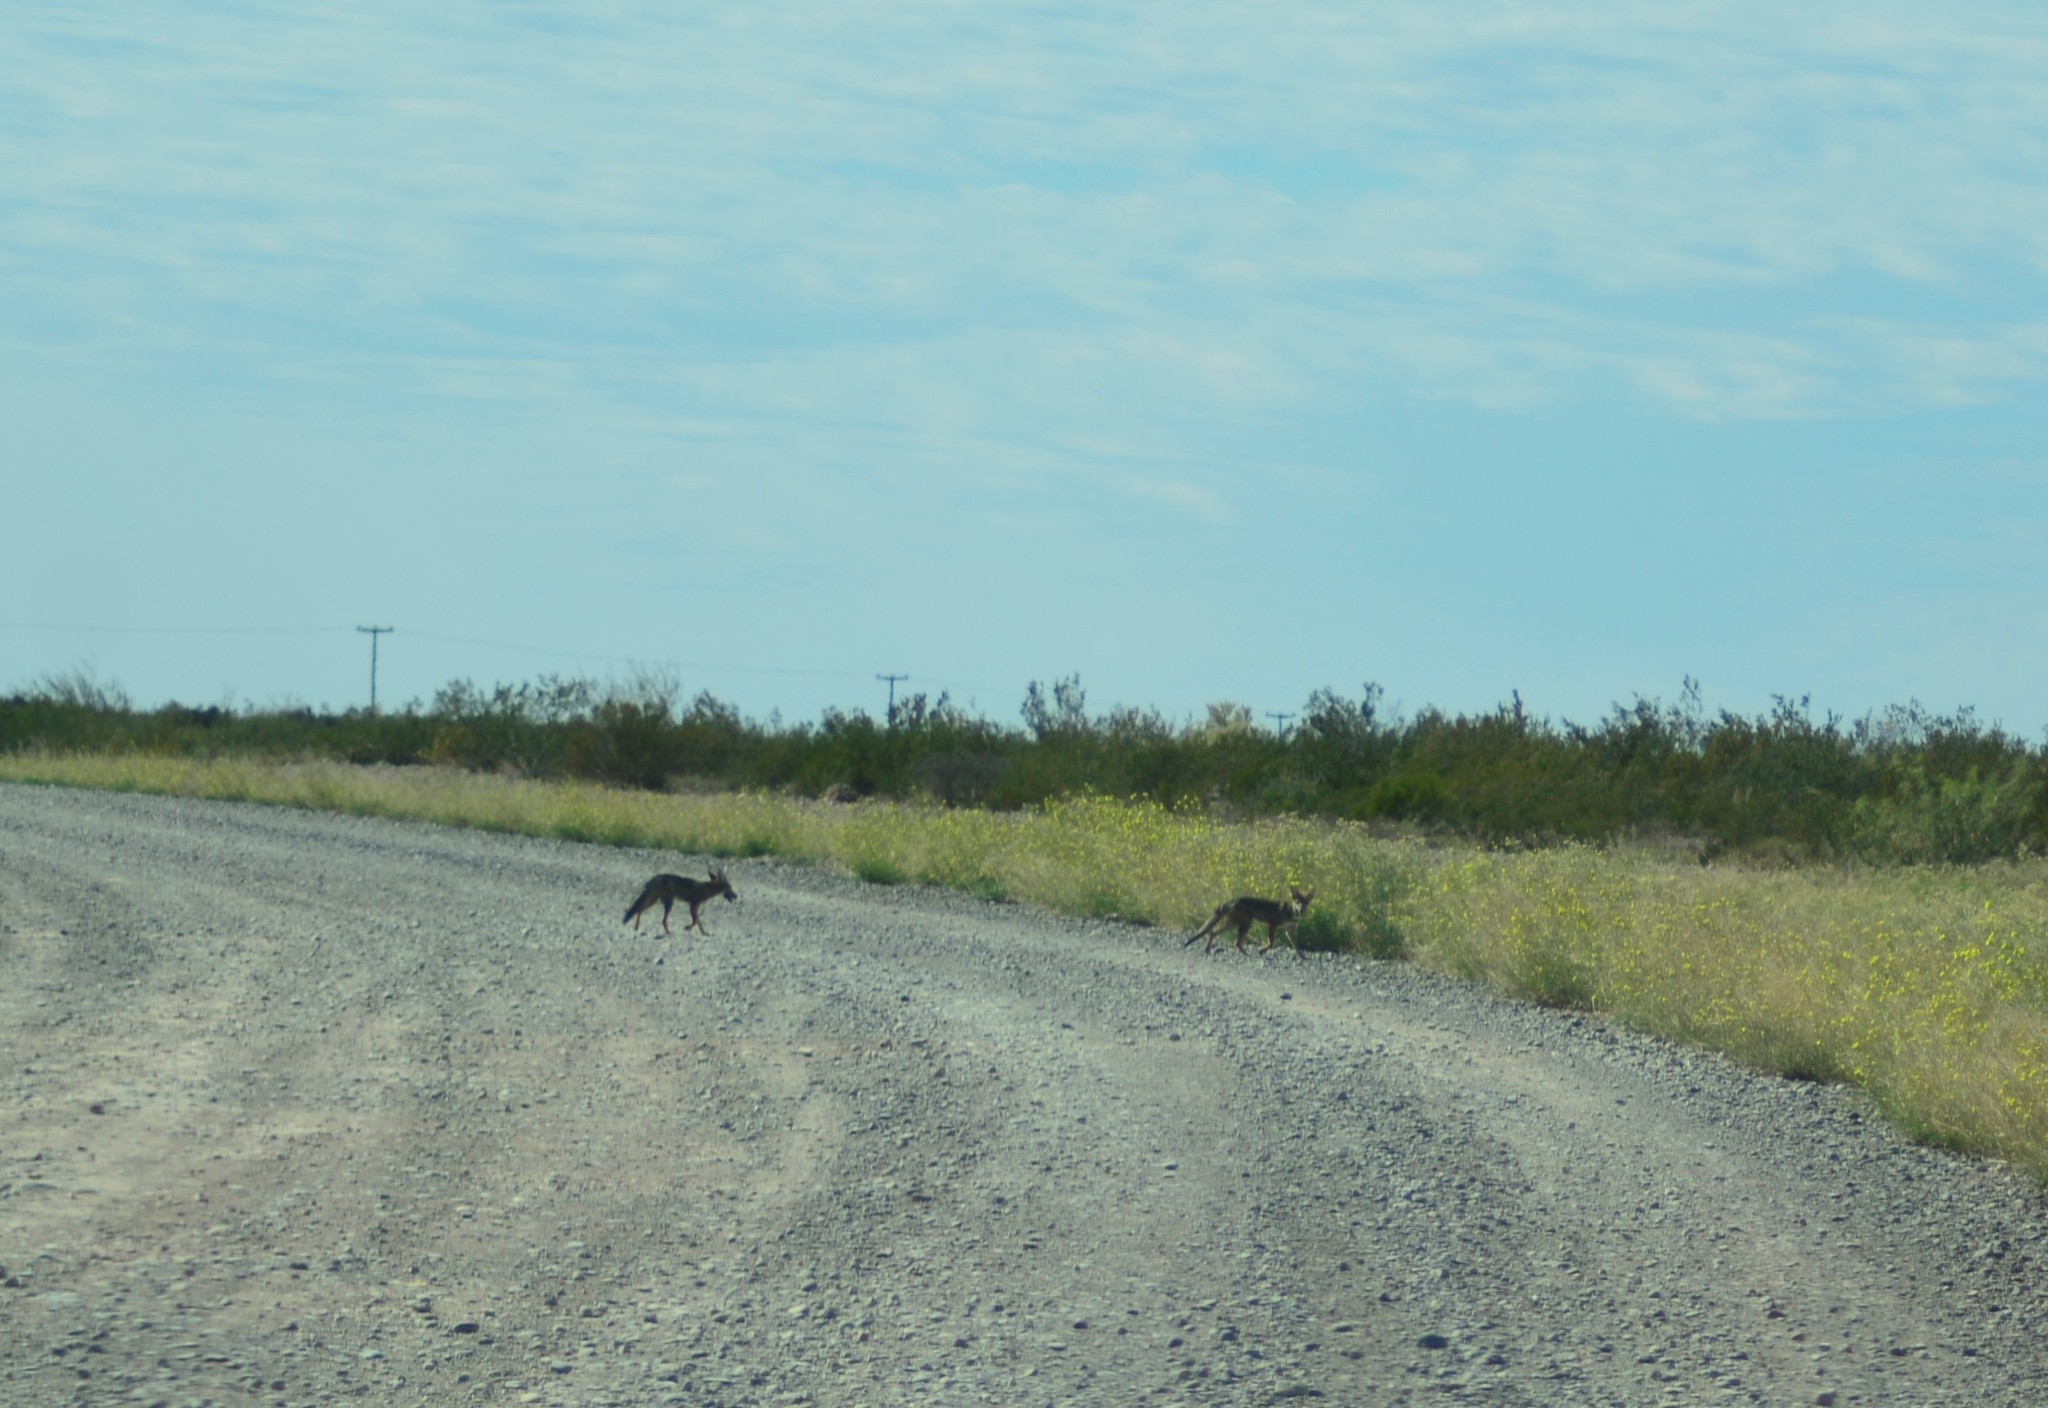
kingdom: Animalia
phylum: Chordata
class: Mammalia
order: Carnivora
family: Canidae
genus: Lycalopex
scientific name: Lycalopex gymnocercus
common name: Pampas fox
